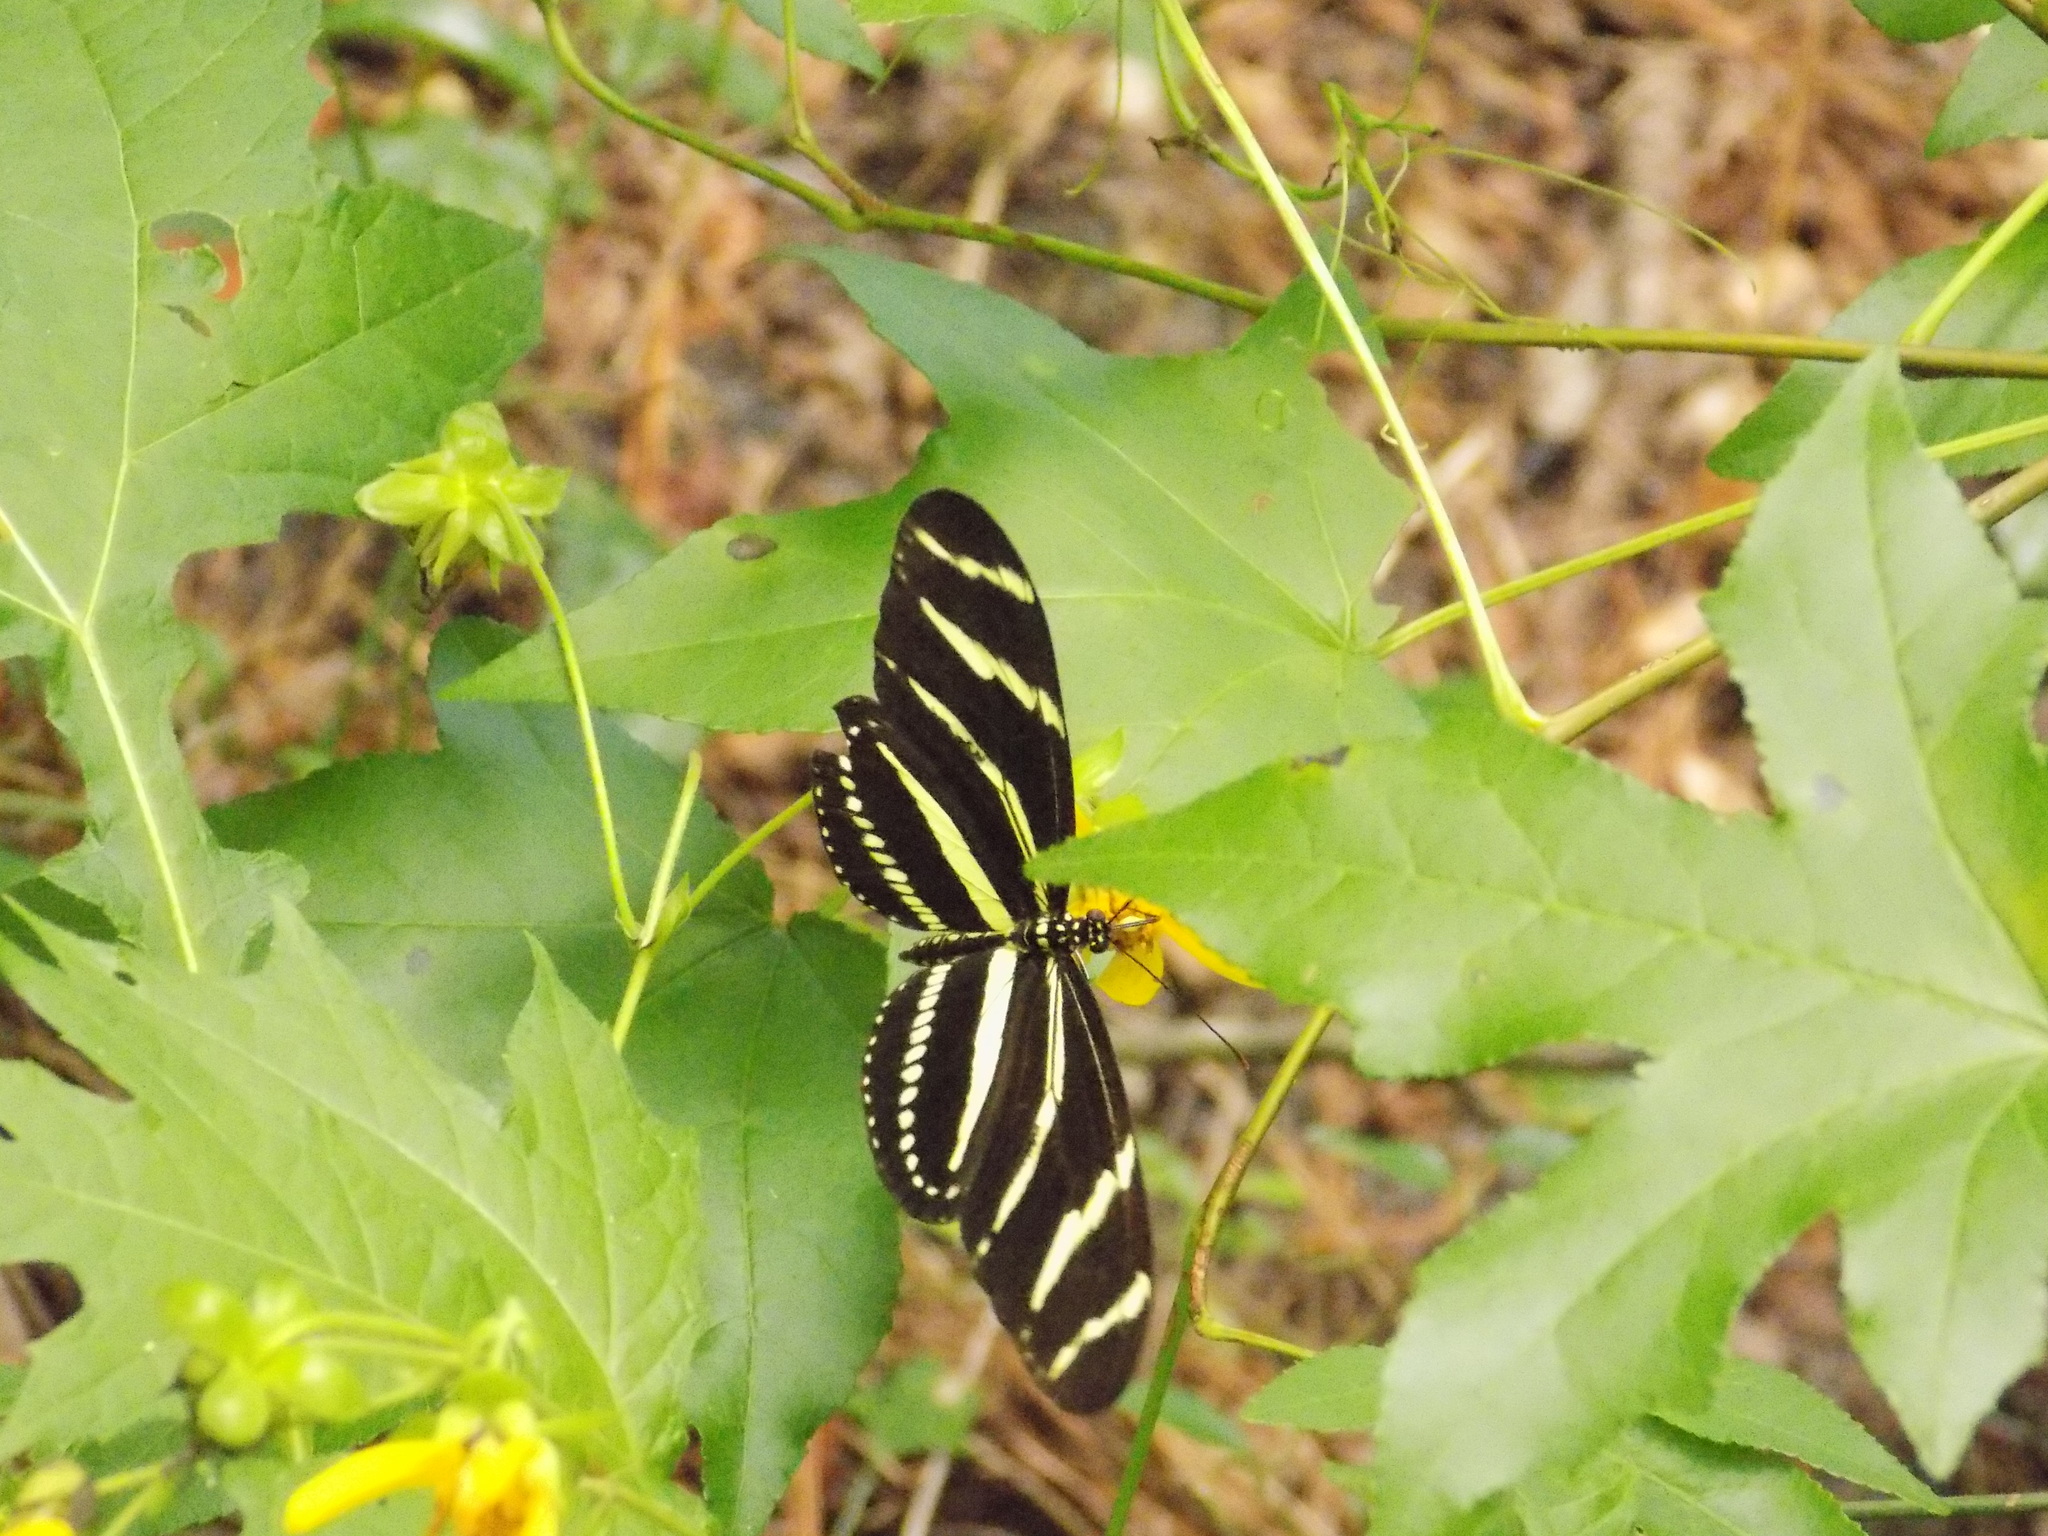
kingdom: Animalia
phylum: Arthropoda
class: Insecta
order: Lepidoptera
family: Nymphalidae
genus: Heliconius
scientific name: Heliconius charithonia
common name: Zebra long wing
